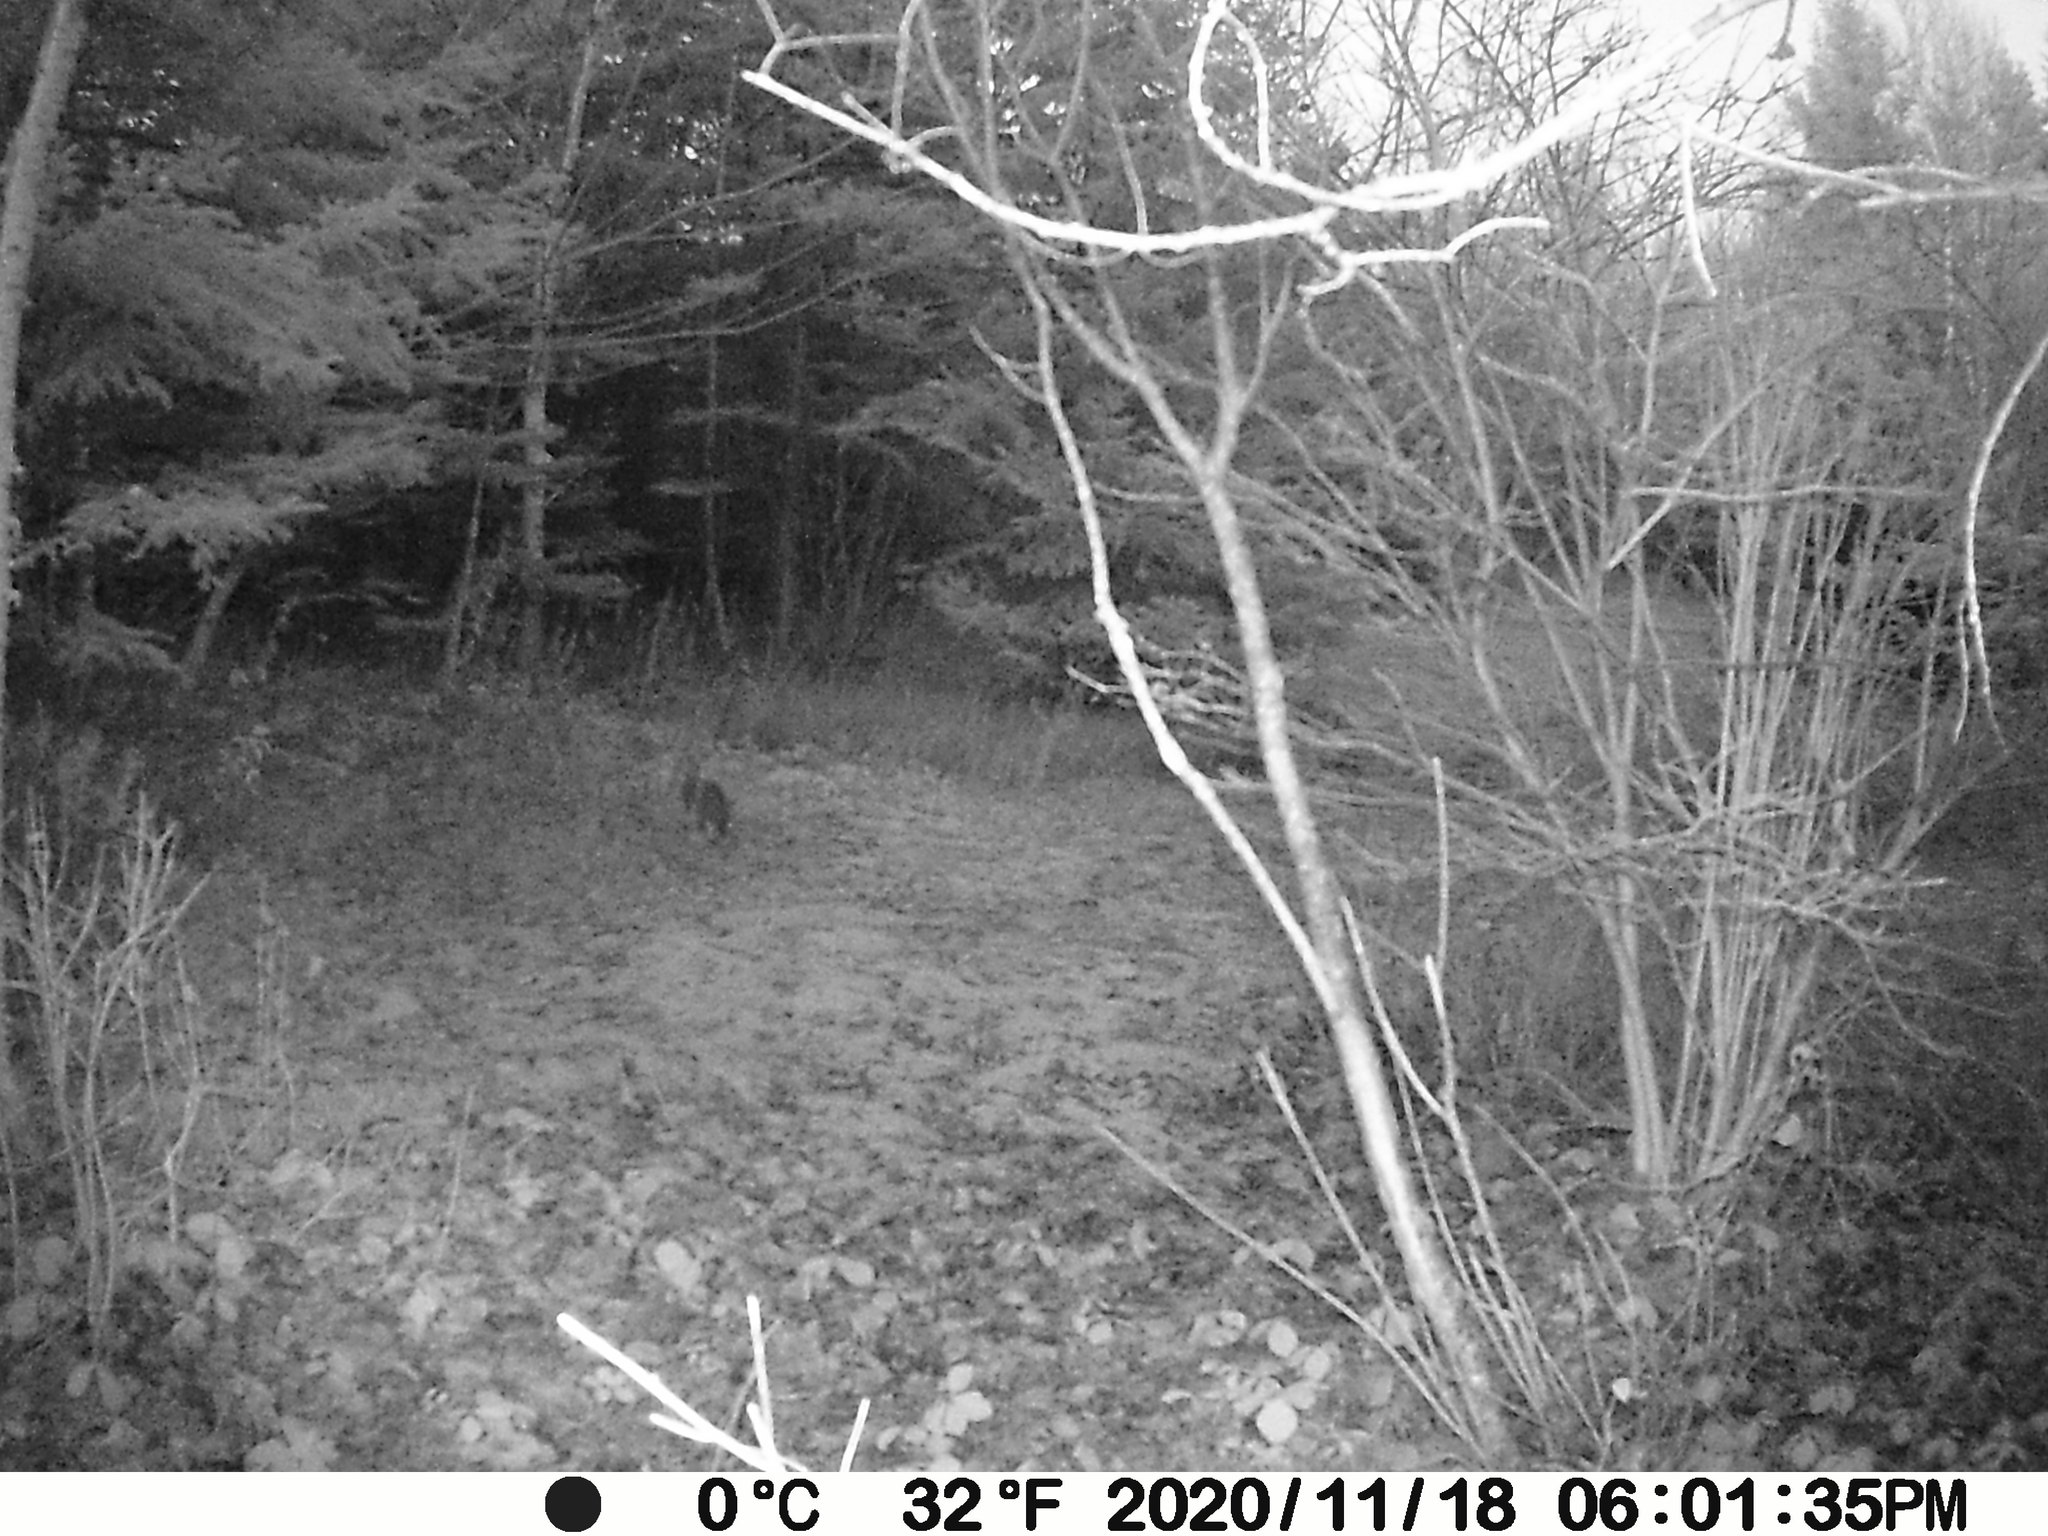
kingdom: Animalia
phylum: Chordata
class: Mammalia
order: Lagomorpha
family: Leporidae
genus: Lepus
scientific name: Lepus americanus
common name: Snowshoe hare
